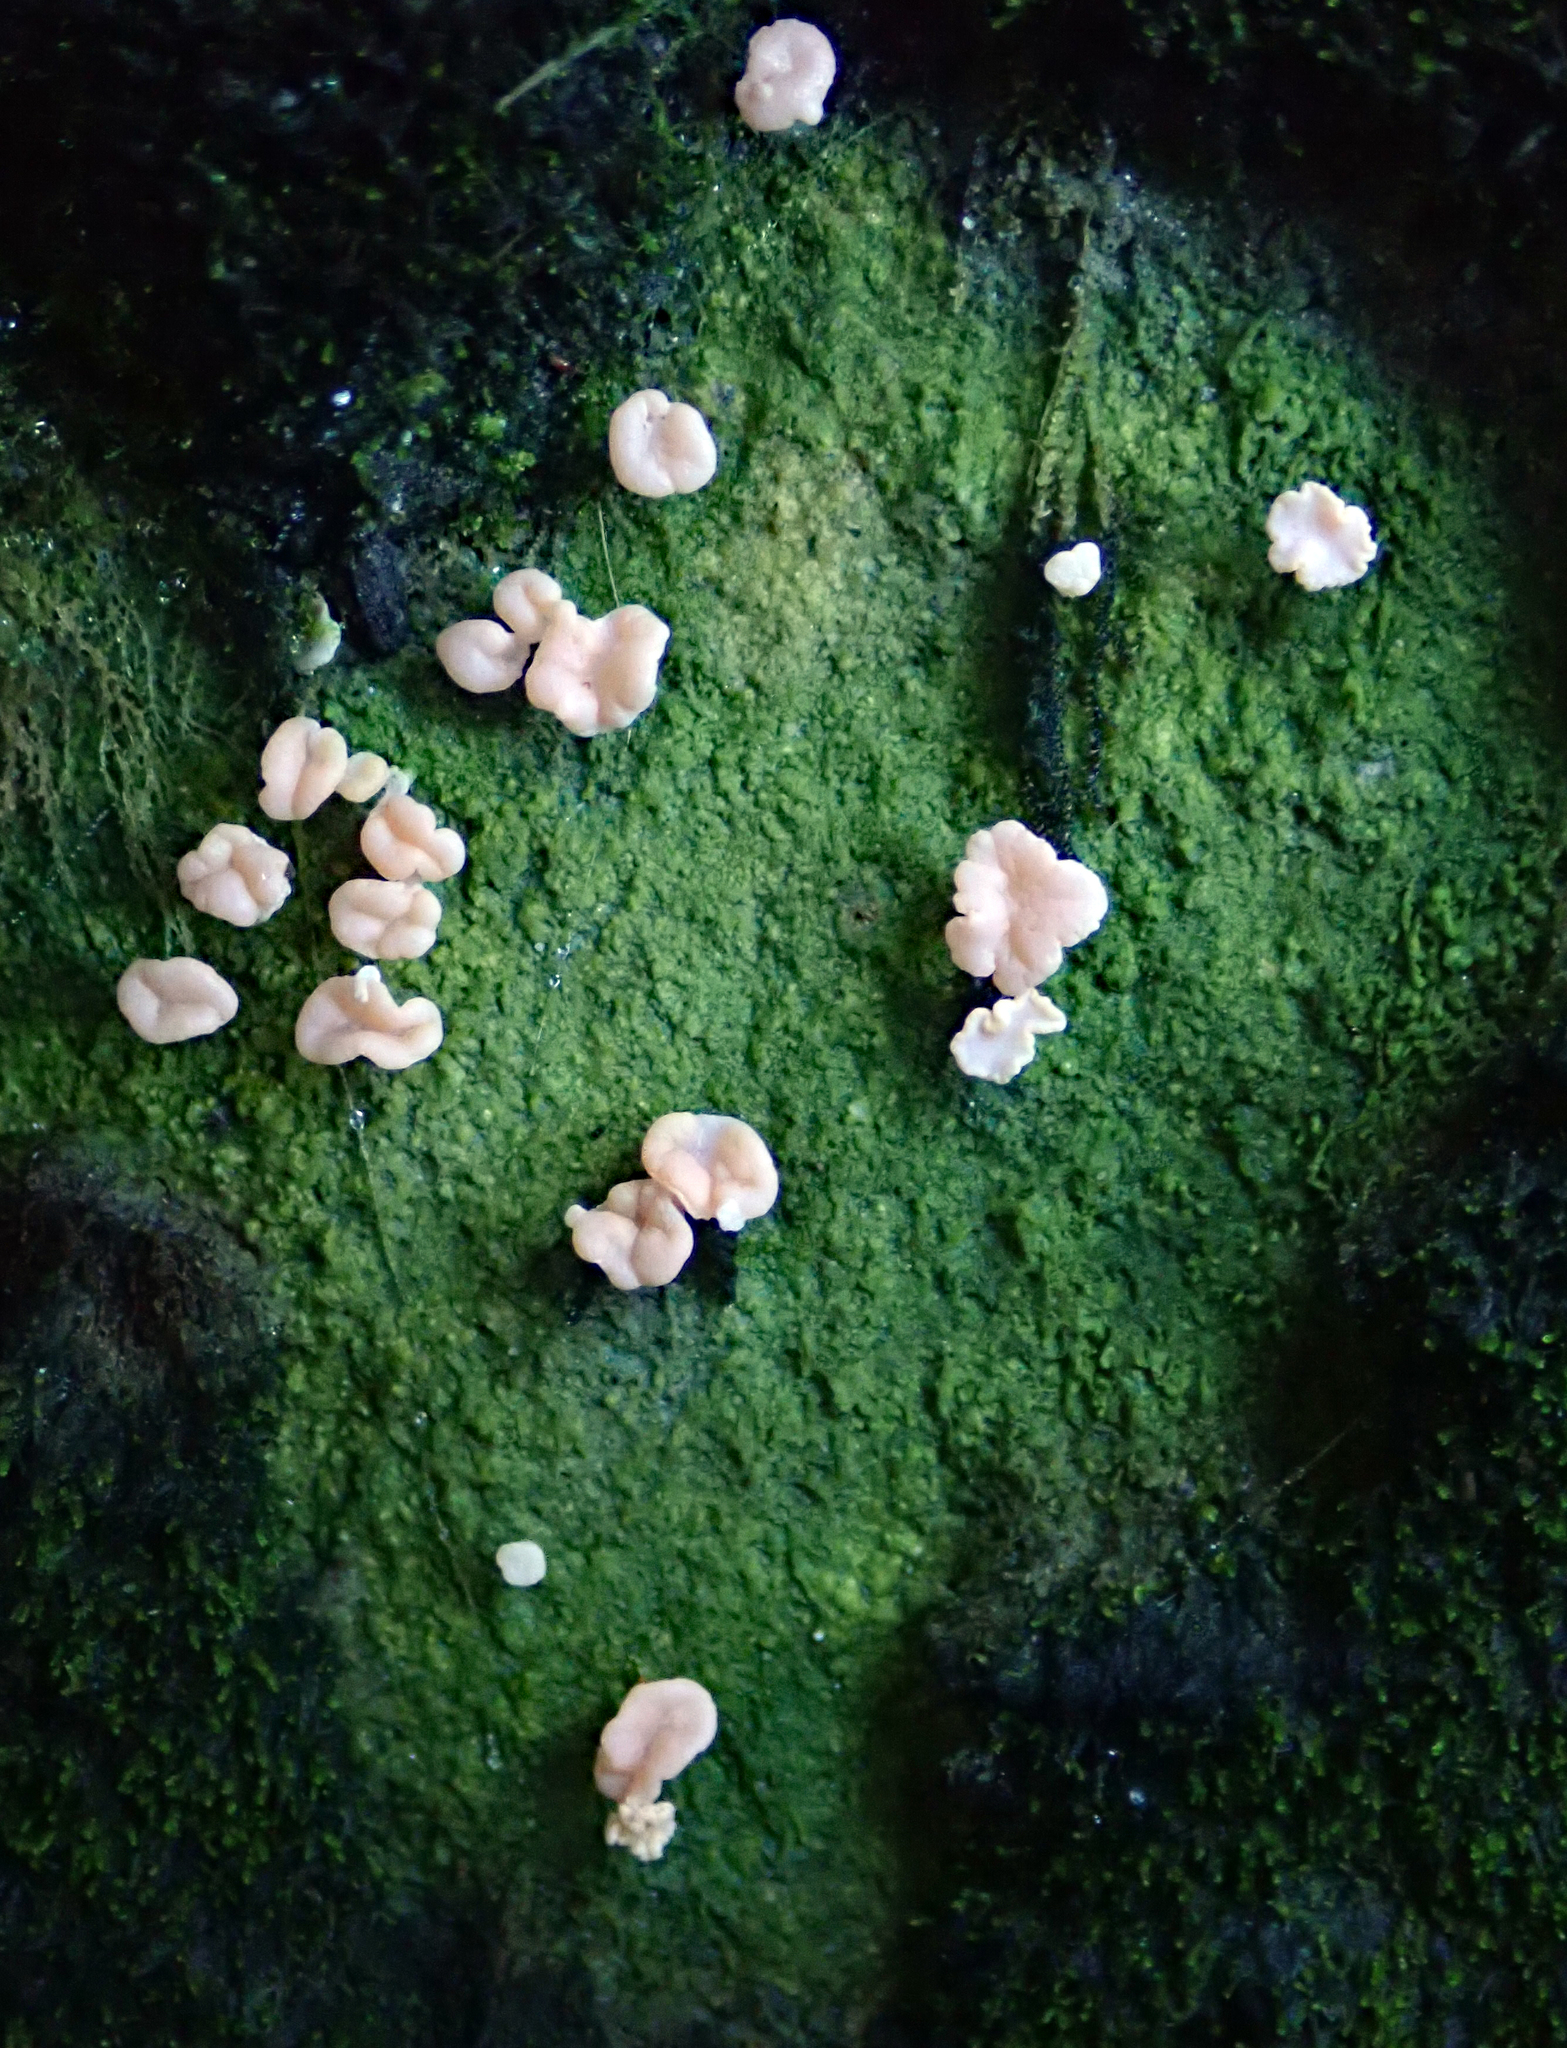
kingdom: Fungi
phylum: Ascomycota
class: Lecanoromycetes
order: Pertusariales
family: Icmadophilaceae
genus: Dibaeis
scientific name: Dibaeis absoluta
